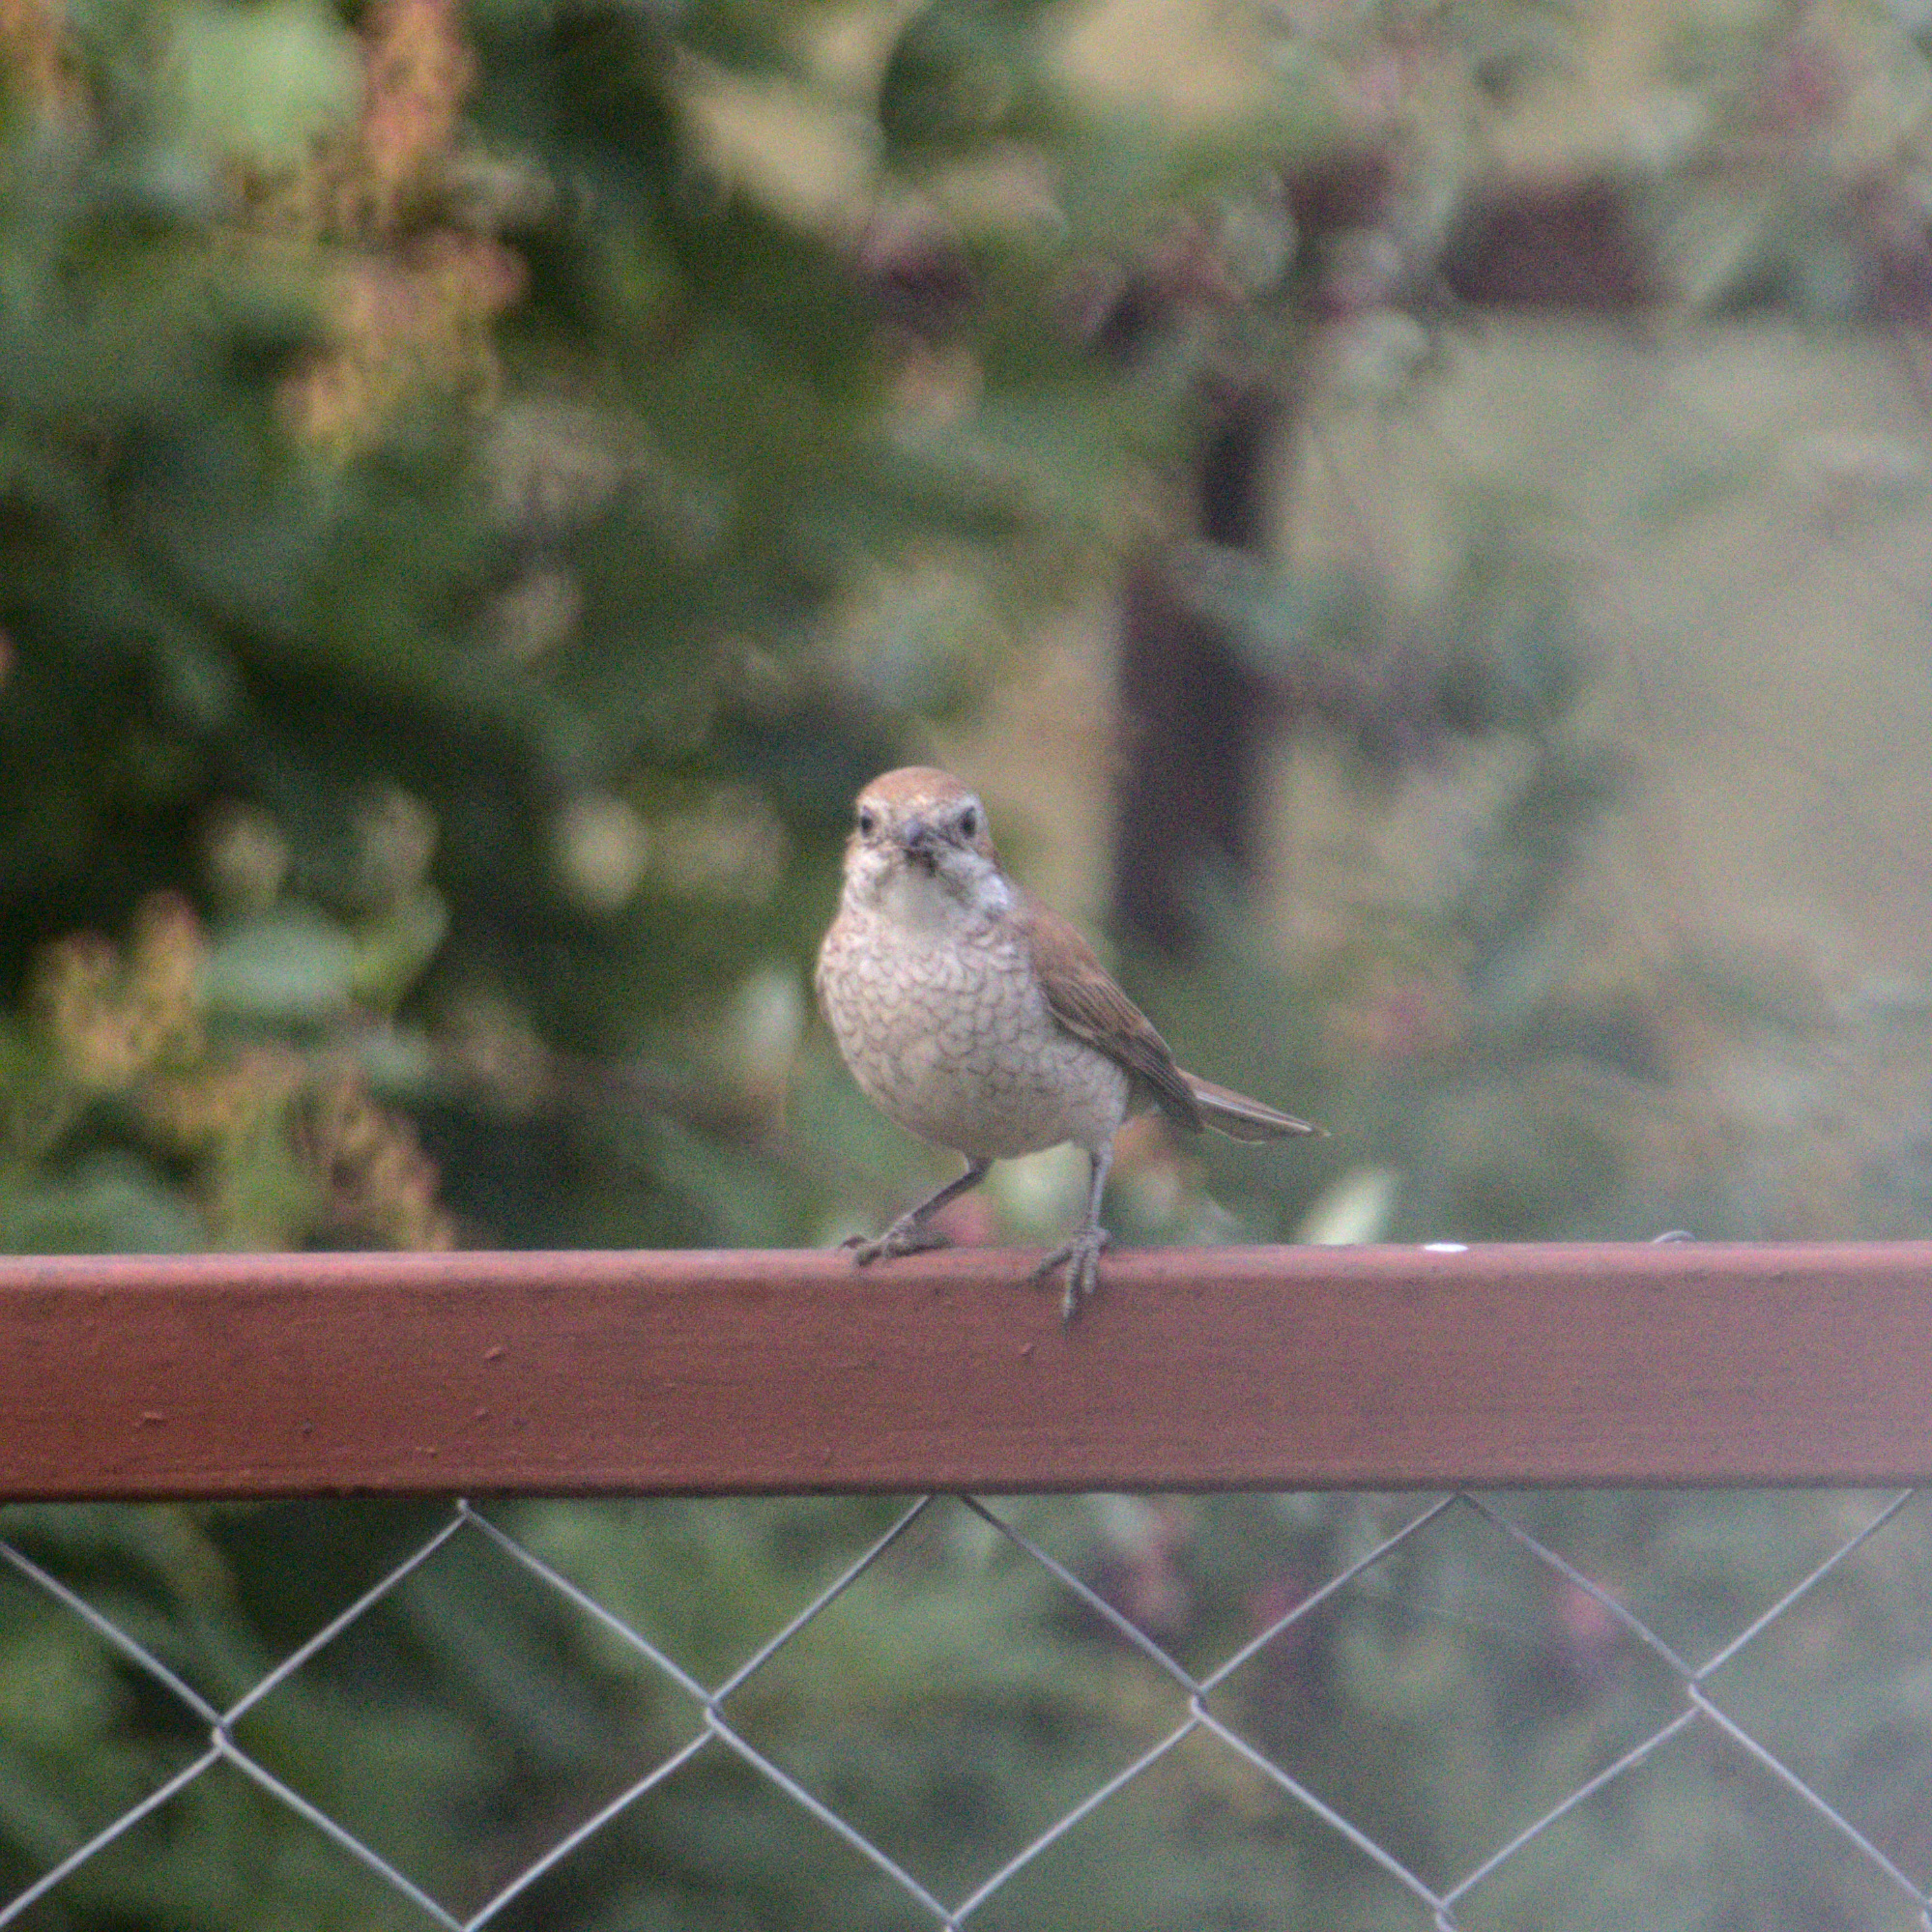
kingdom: Animalia
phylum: Chordata
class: Aves
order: Passeriformes
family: Laniidae
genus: Lanius
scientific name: Lanius collurio
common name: Red-backed shrike
